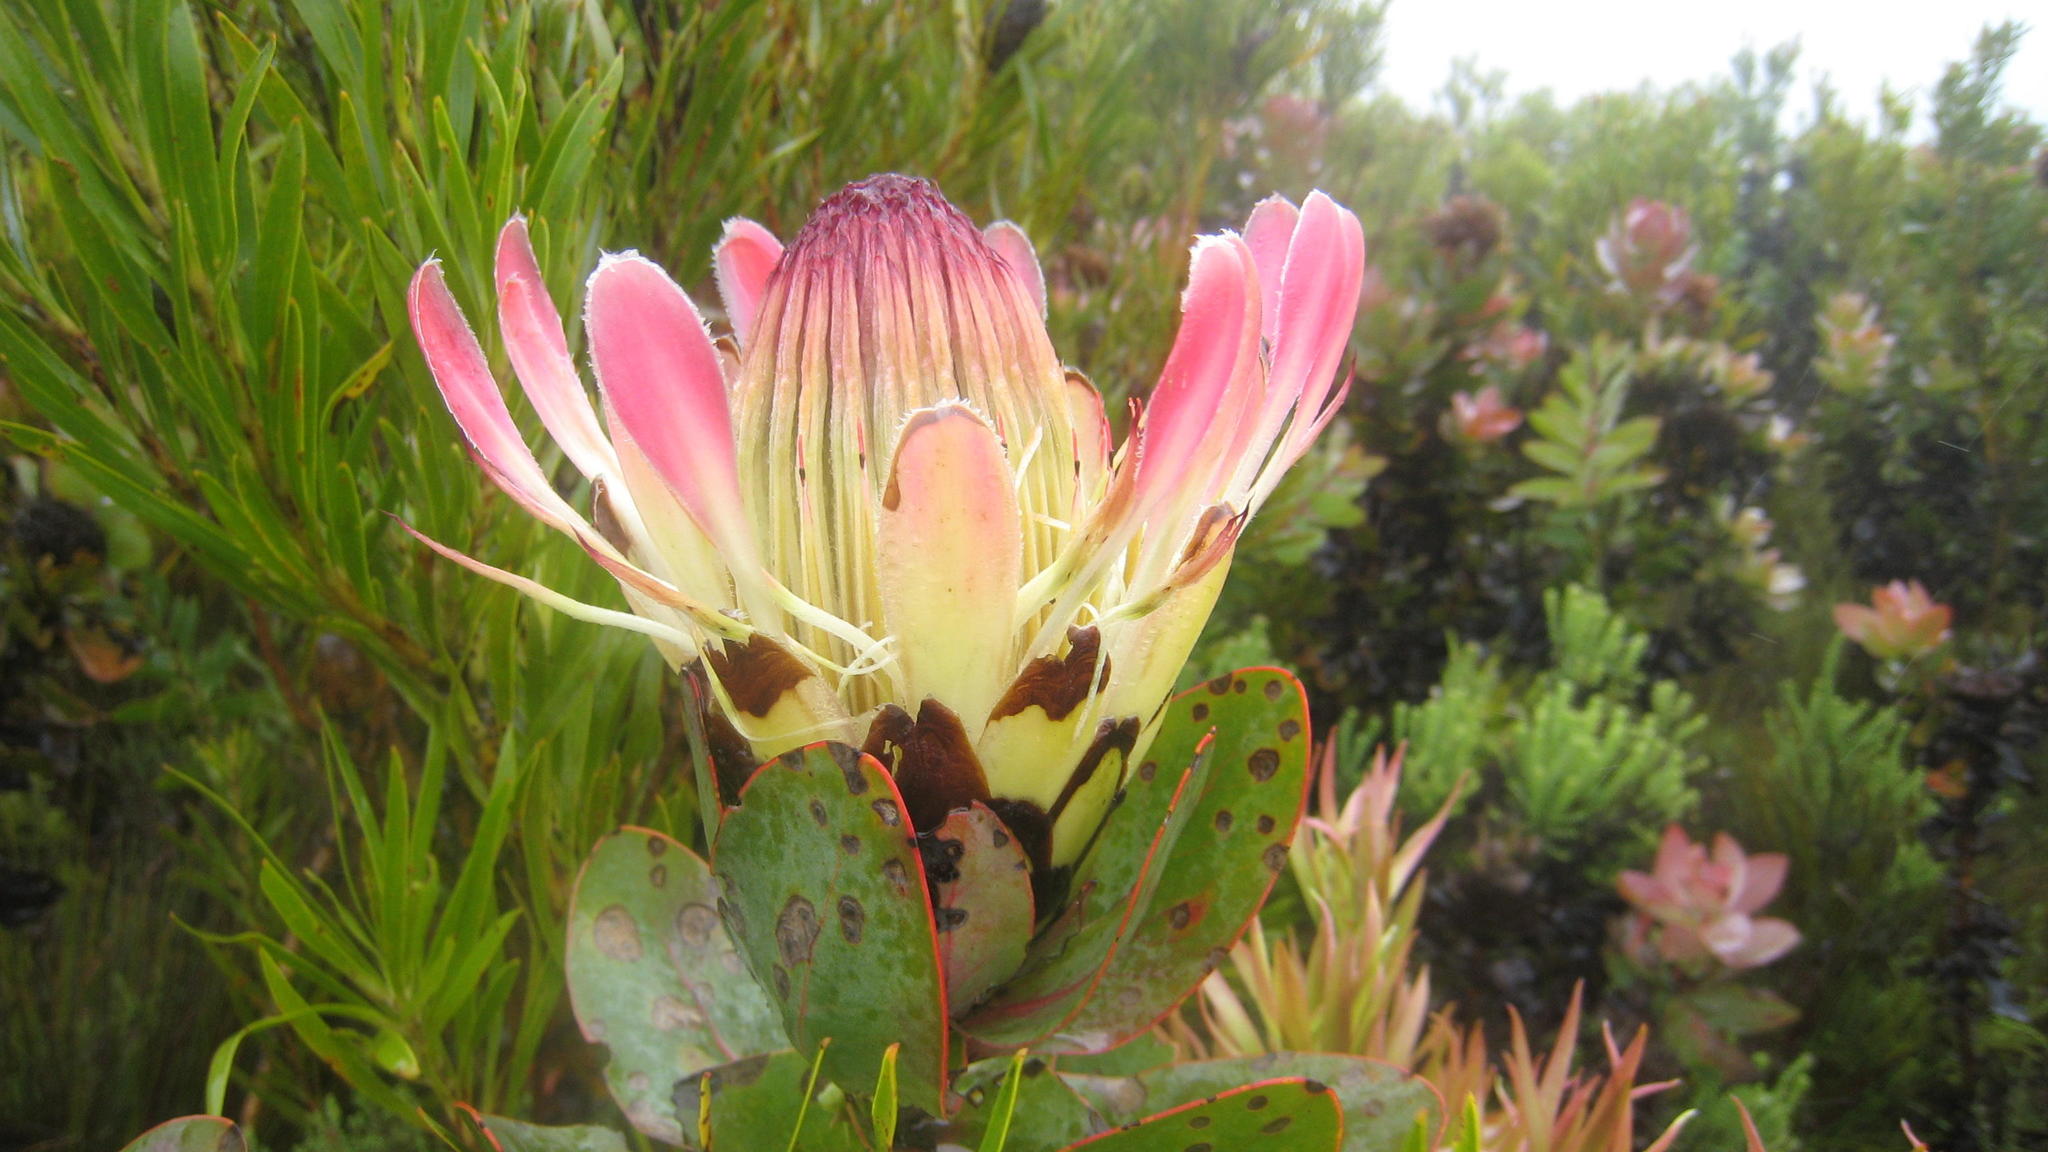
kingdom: Plantae
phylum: Tracheophyta
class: Magnoliopsida
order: Proteales
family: Proteaceae
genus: Protea
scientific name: Protea eximia
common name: Broad-leaved sugarbush
